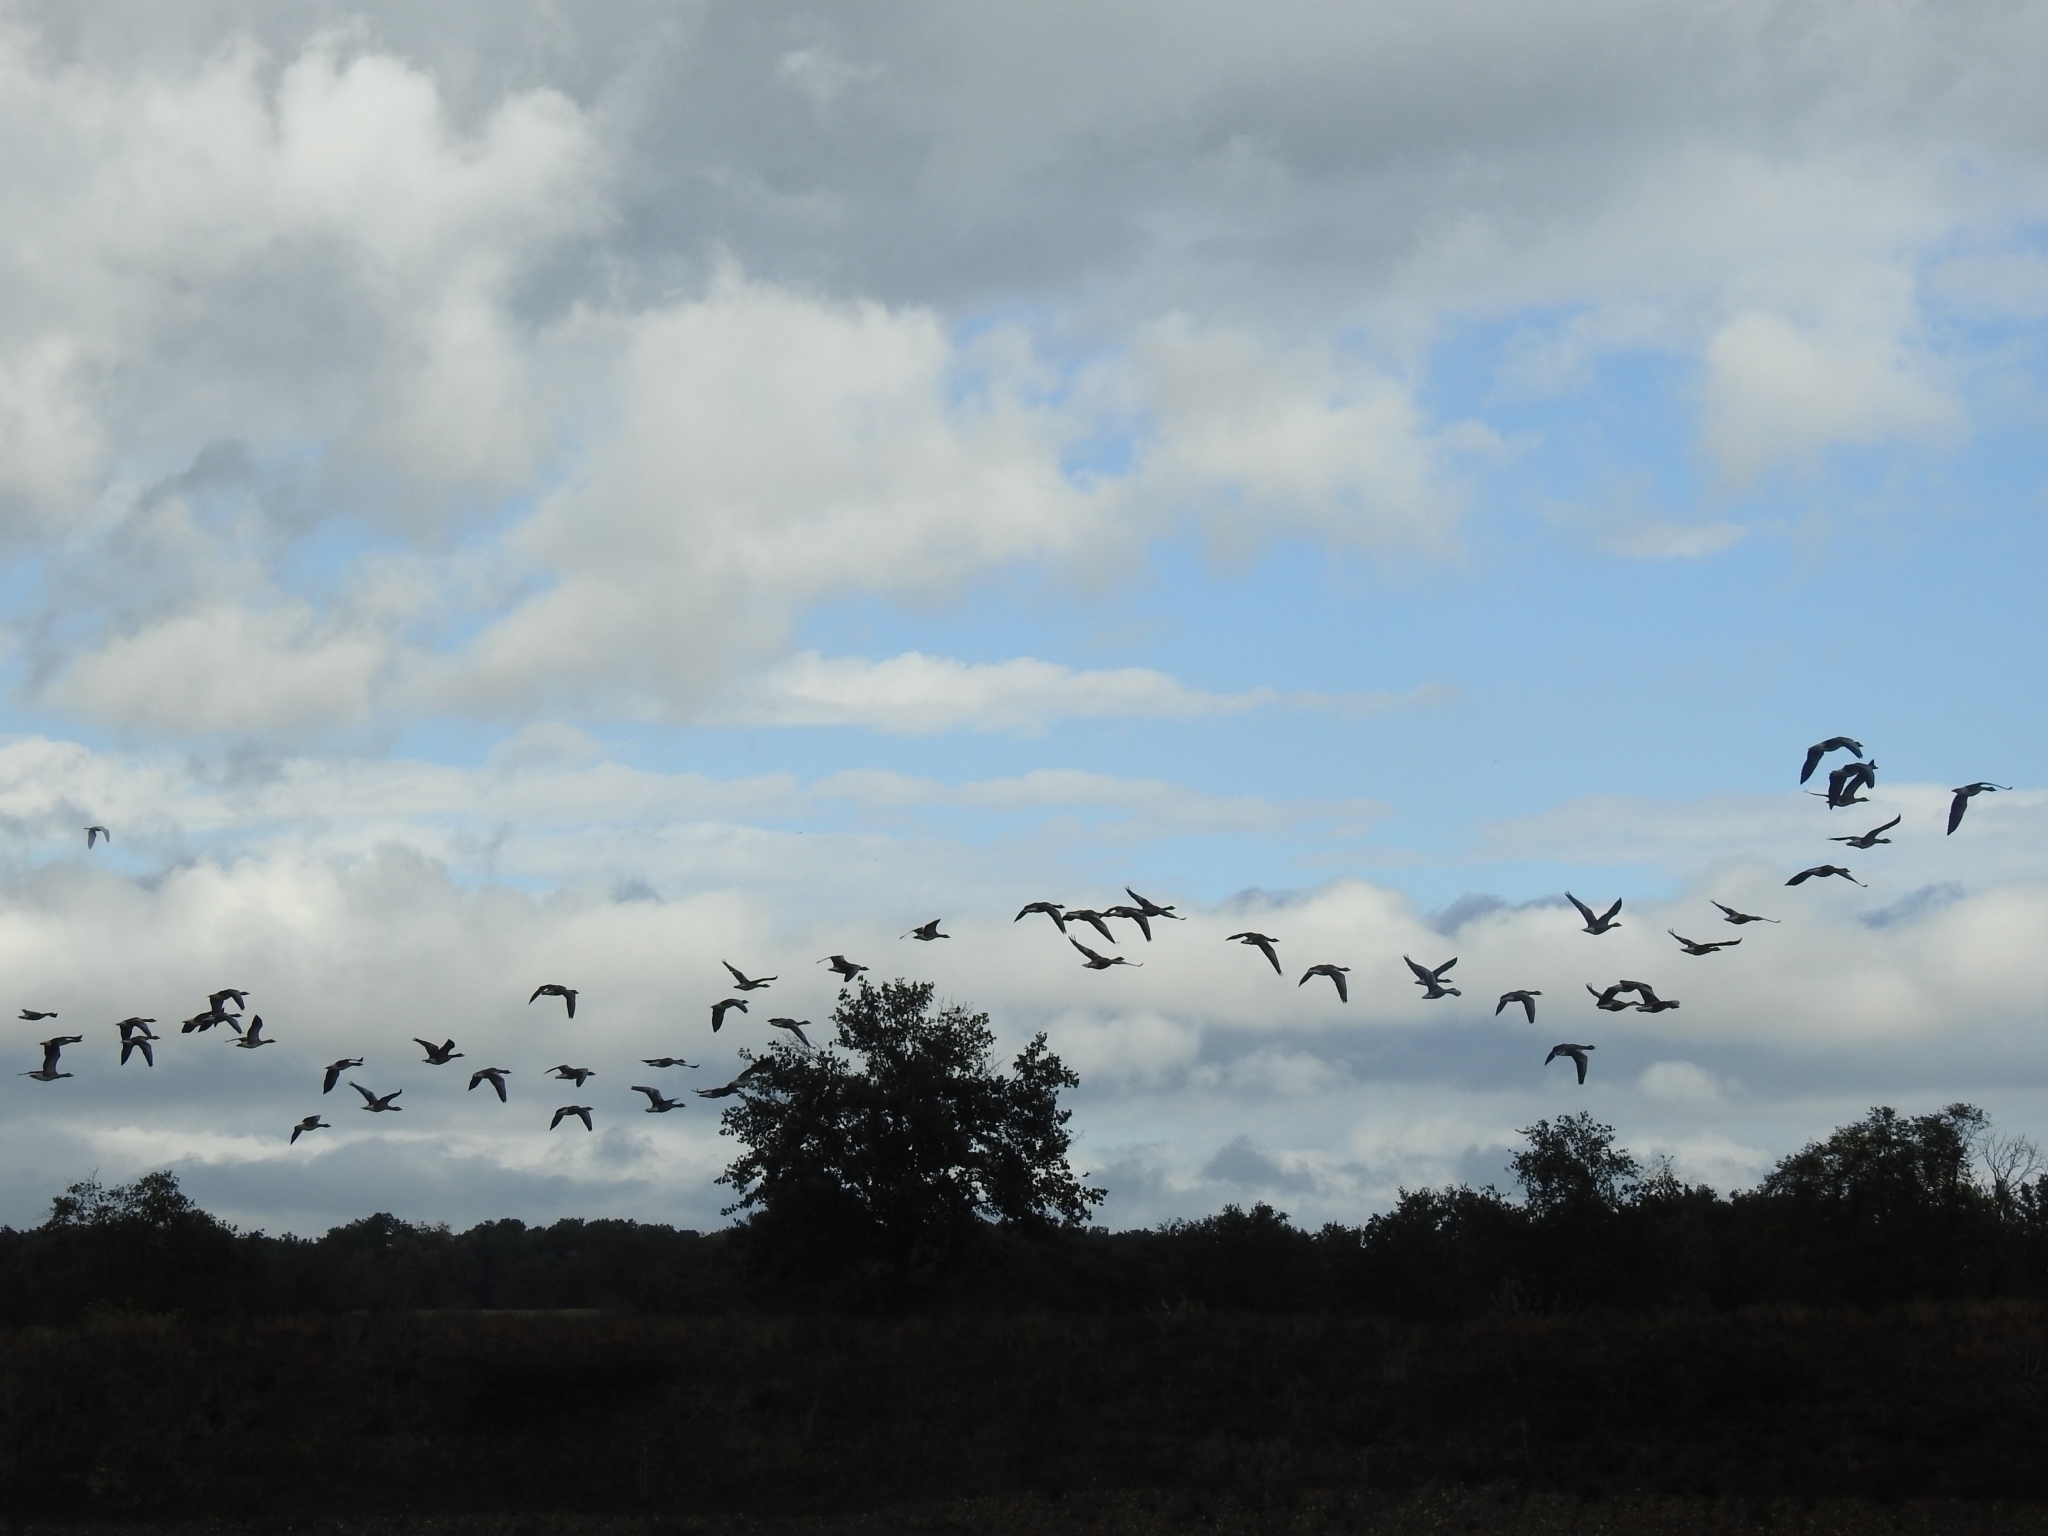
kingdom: Animalia
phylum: Chordata
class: Aves
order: Anseriformes
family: Anatidae
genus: Anser
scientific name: Anser anser
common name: Greylag goose
